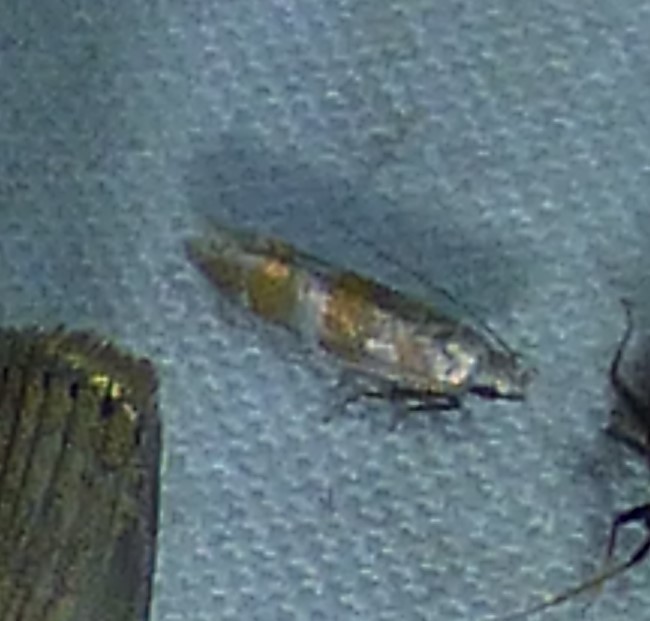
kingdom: Animalia
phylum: Arthropoda
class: Insecta
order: Lepidoptera
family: Gelechiidae
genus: Battaristis
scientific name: Battaristis vittella
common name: Orange stripe-backed moth
